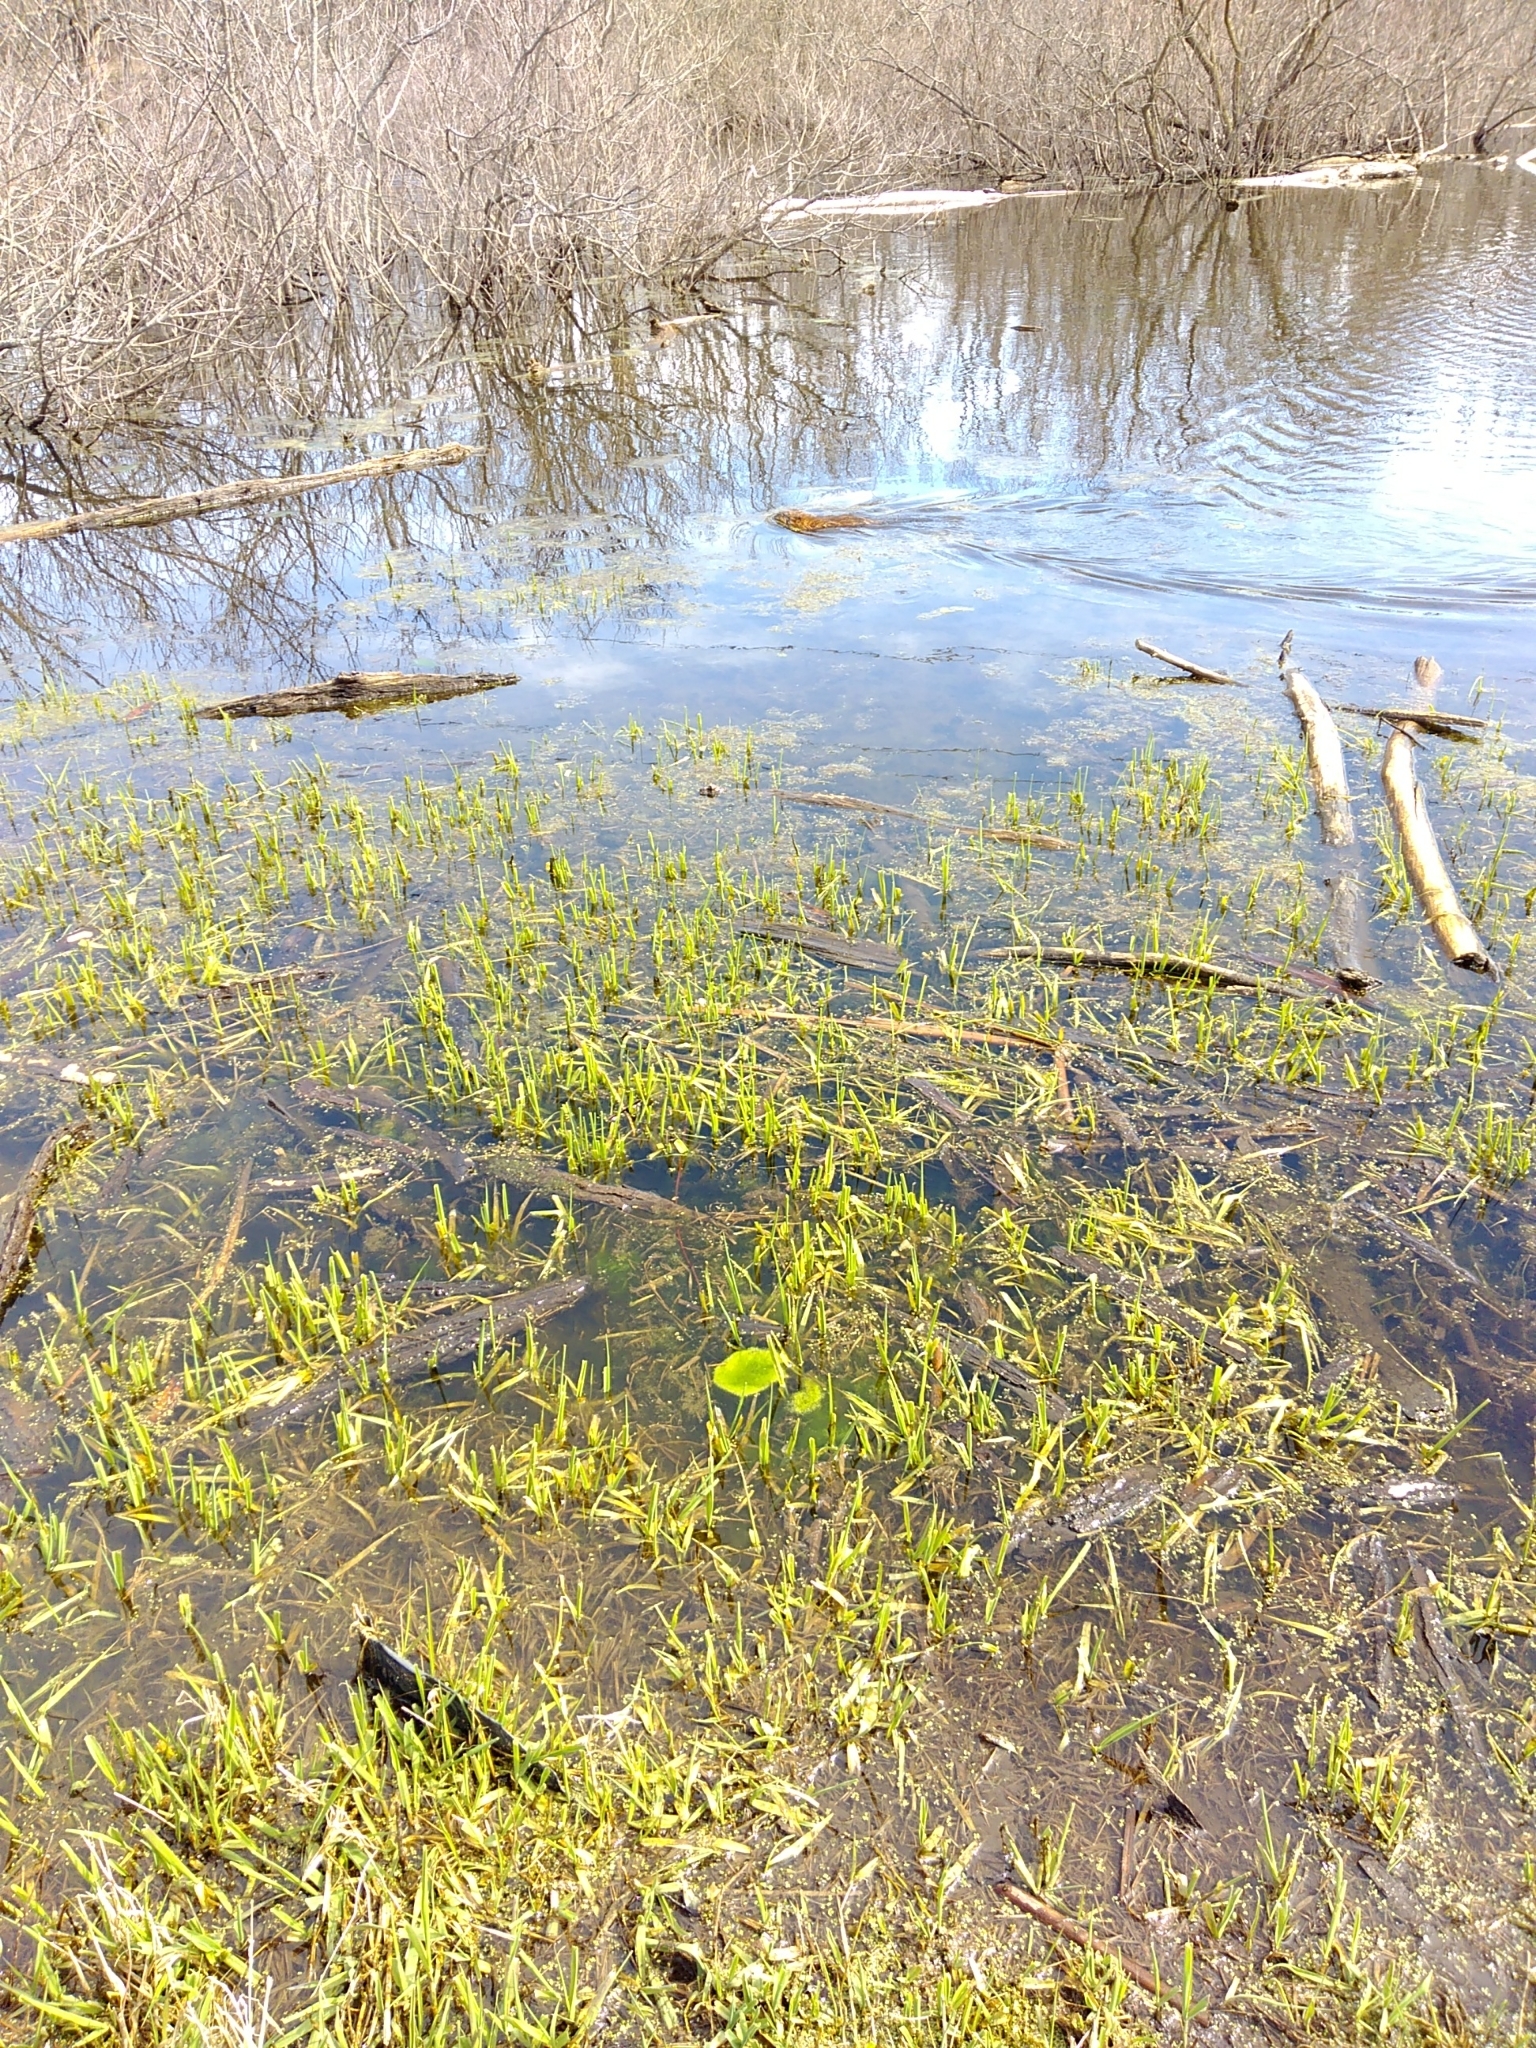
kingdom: Animalia
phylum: Chordata
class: Mammalia
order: Rodentia
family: Cricetidae
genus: Ondatra
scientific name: Ondatra zibethicus
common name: Muskrat
